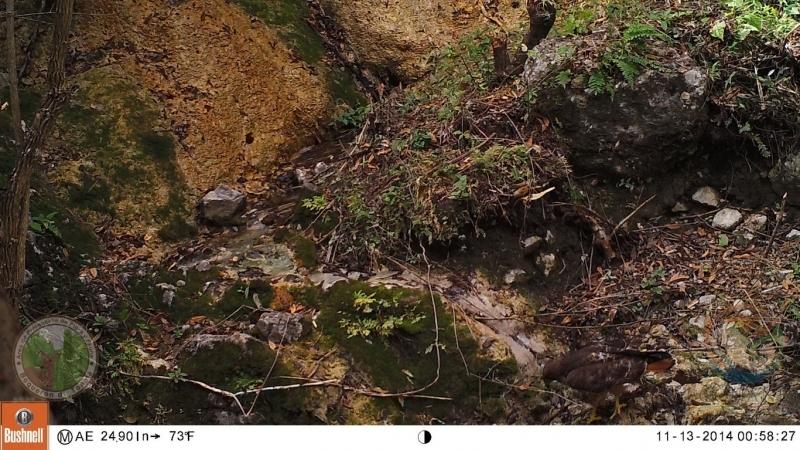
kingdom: Animalia
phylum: Chordata
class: Aves
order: Accipitriformes
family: Accipitridae
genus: Buteo
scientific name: Buteo jamaicensis
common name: Red-tailed hawk
